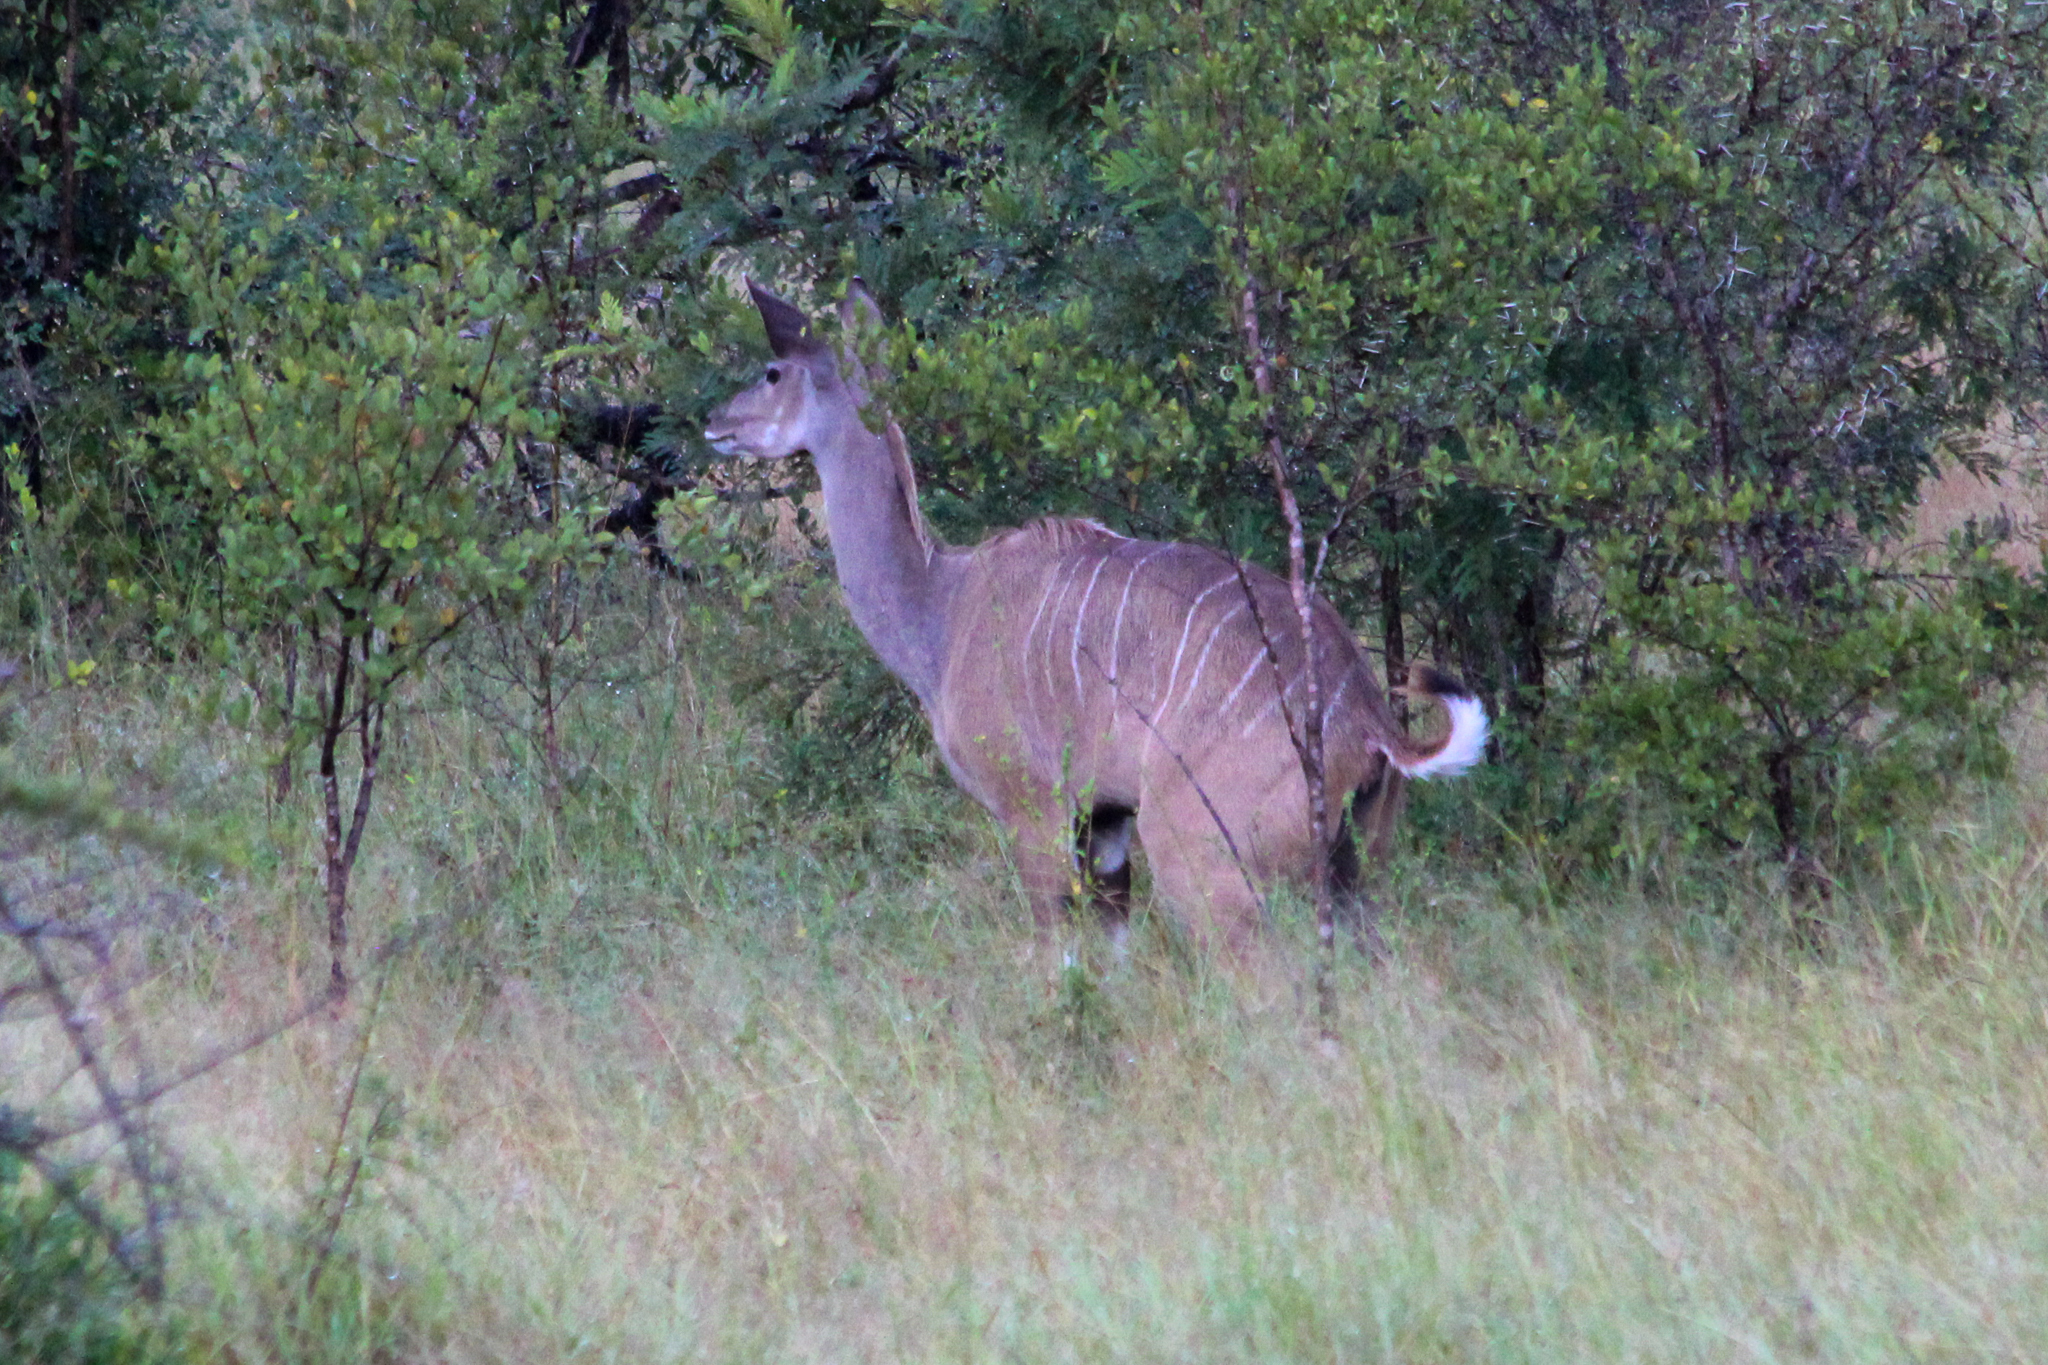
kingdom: Animalia
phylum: Chordata
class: Mammalia
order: Artiodactyla
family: Bovidae
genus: Tragelaphus
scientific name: Tragelaphus strepsiceros
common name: Greater kudu
